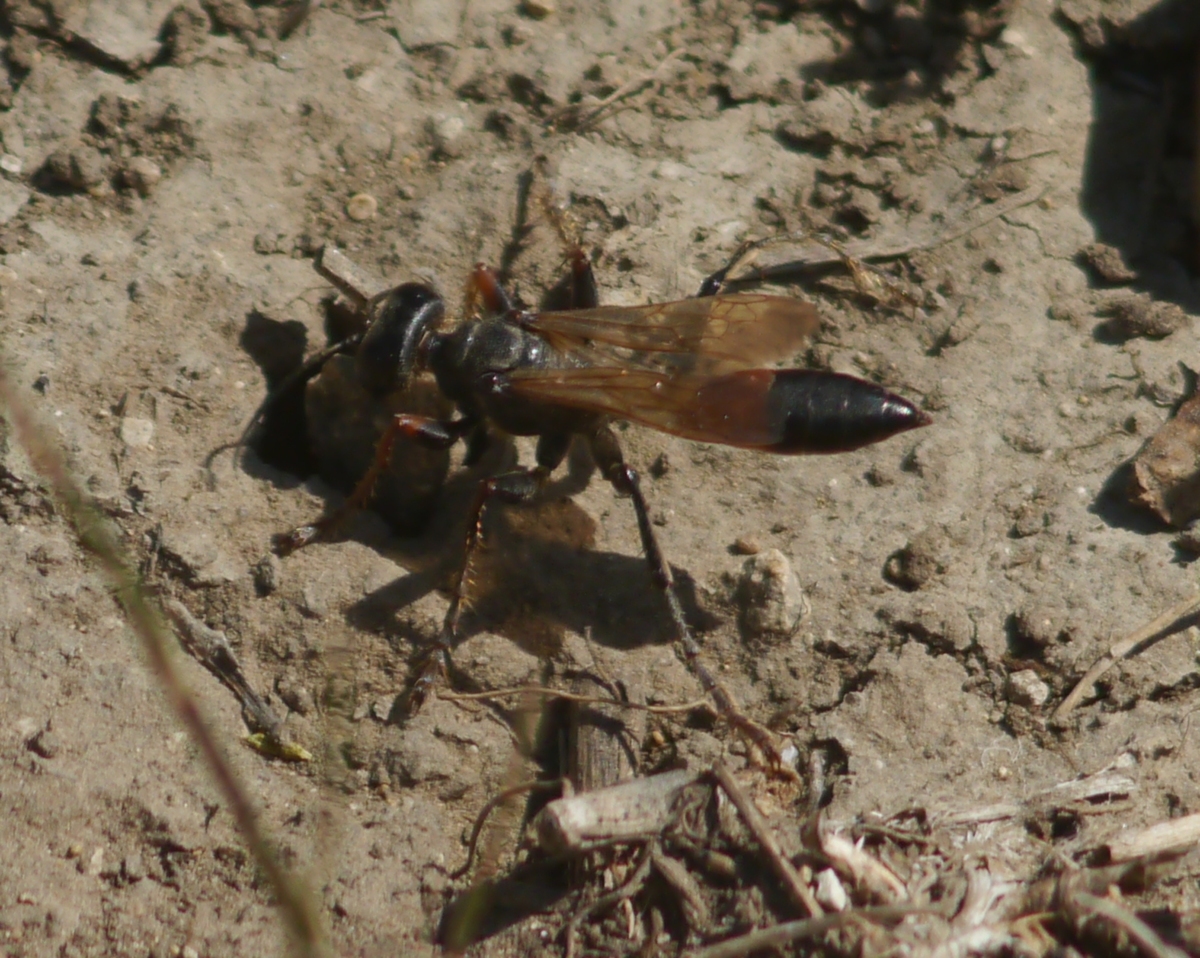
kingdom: Animalia
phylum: Arthropoda
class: Insecta
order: Hymenoptera
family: Sphecidae
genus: Palmodes
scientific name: Palmodes strigulosus
